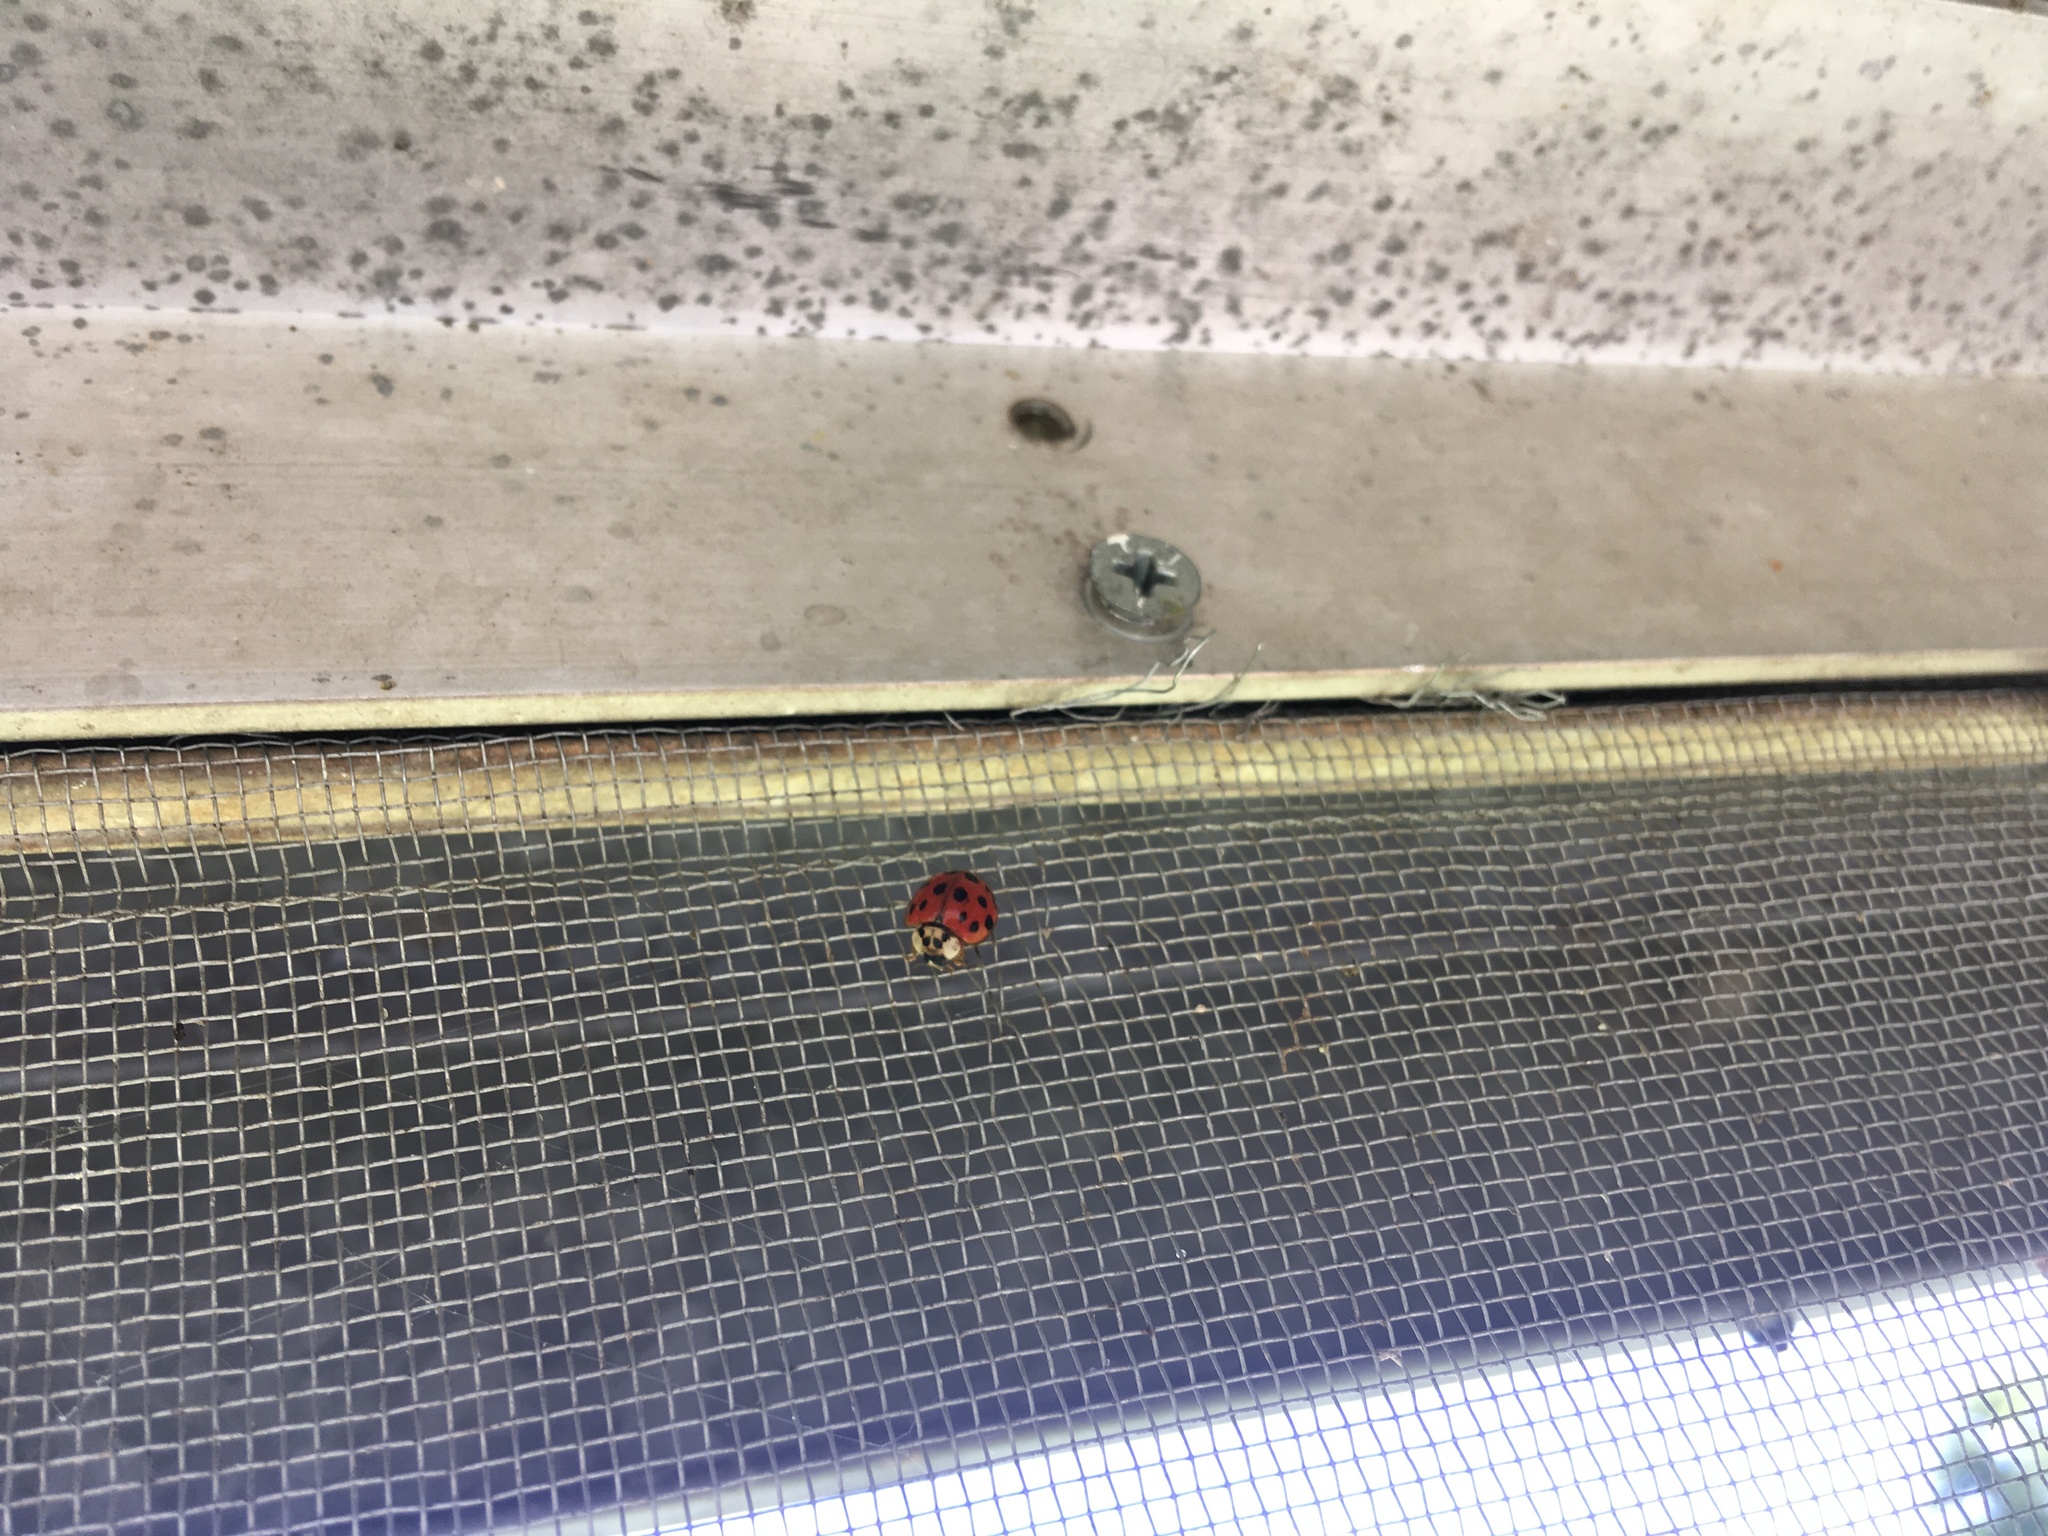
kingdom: Animalia
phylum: Arthropoda
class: Insecta
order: Coleoptera
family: Coccinellidae
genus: Harmonia
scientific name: Harmonia axyridis
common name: Harlequin ladybird
